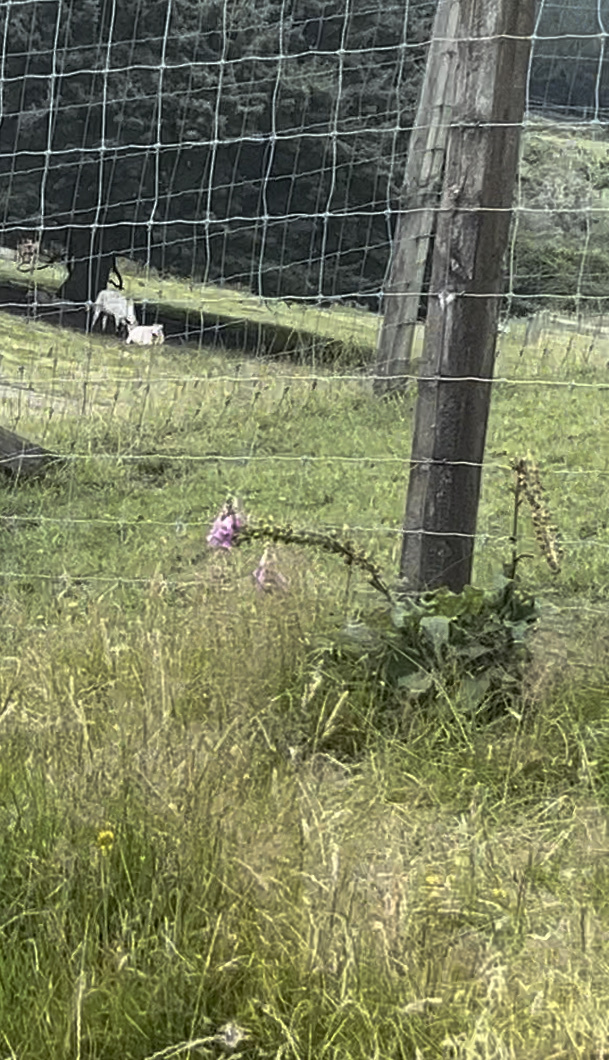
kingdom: Plantae
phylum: Tracheophyta
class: Magnoliopsida
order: Lamiales
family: Plantaginaceae
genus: Digitalis
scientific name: Digitalis purpurea
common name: Foxglove
